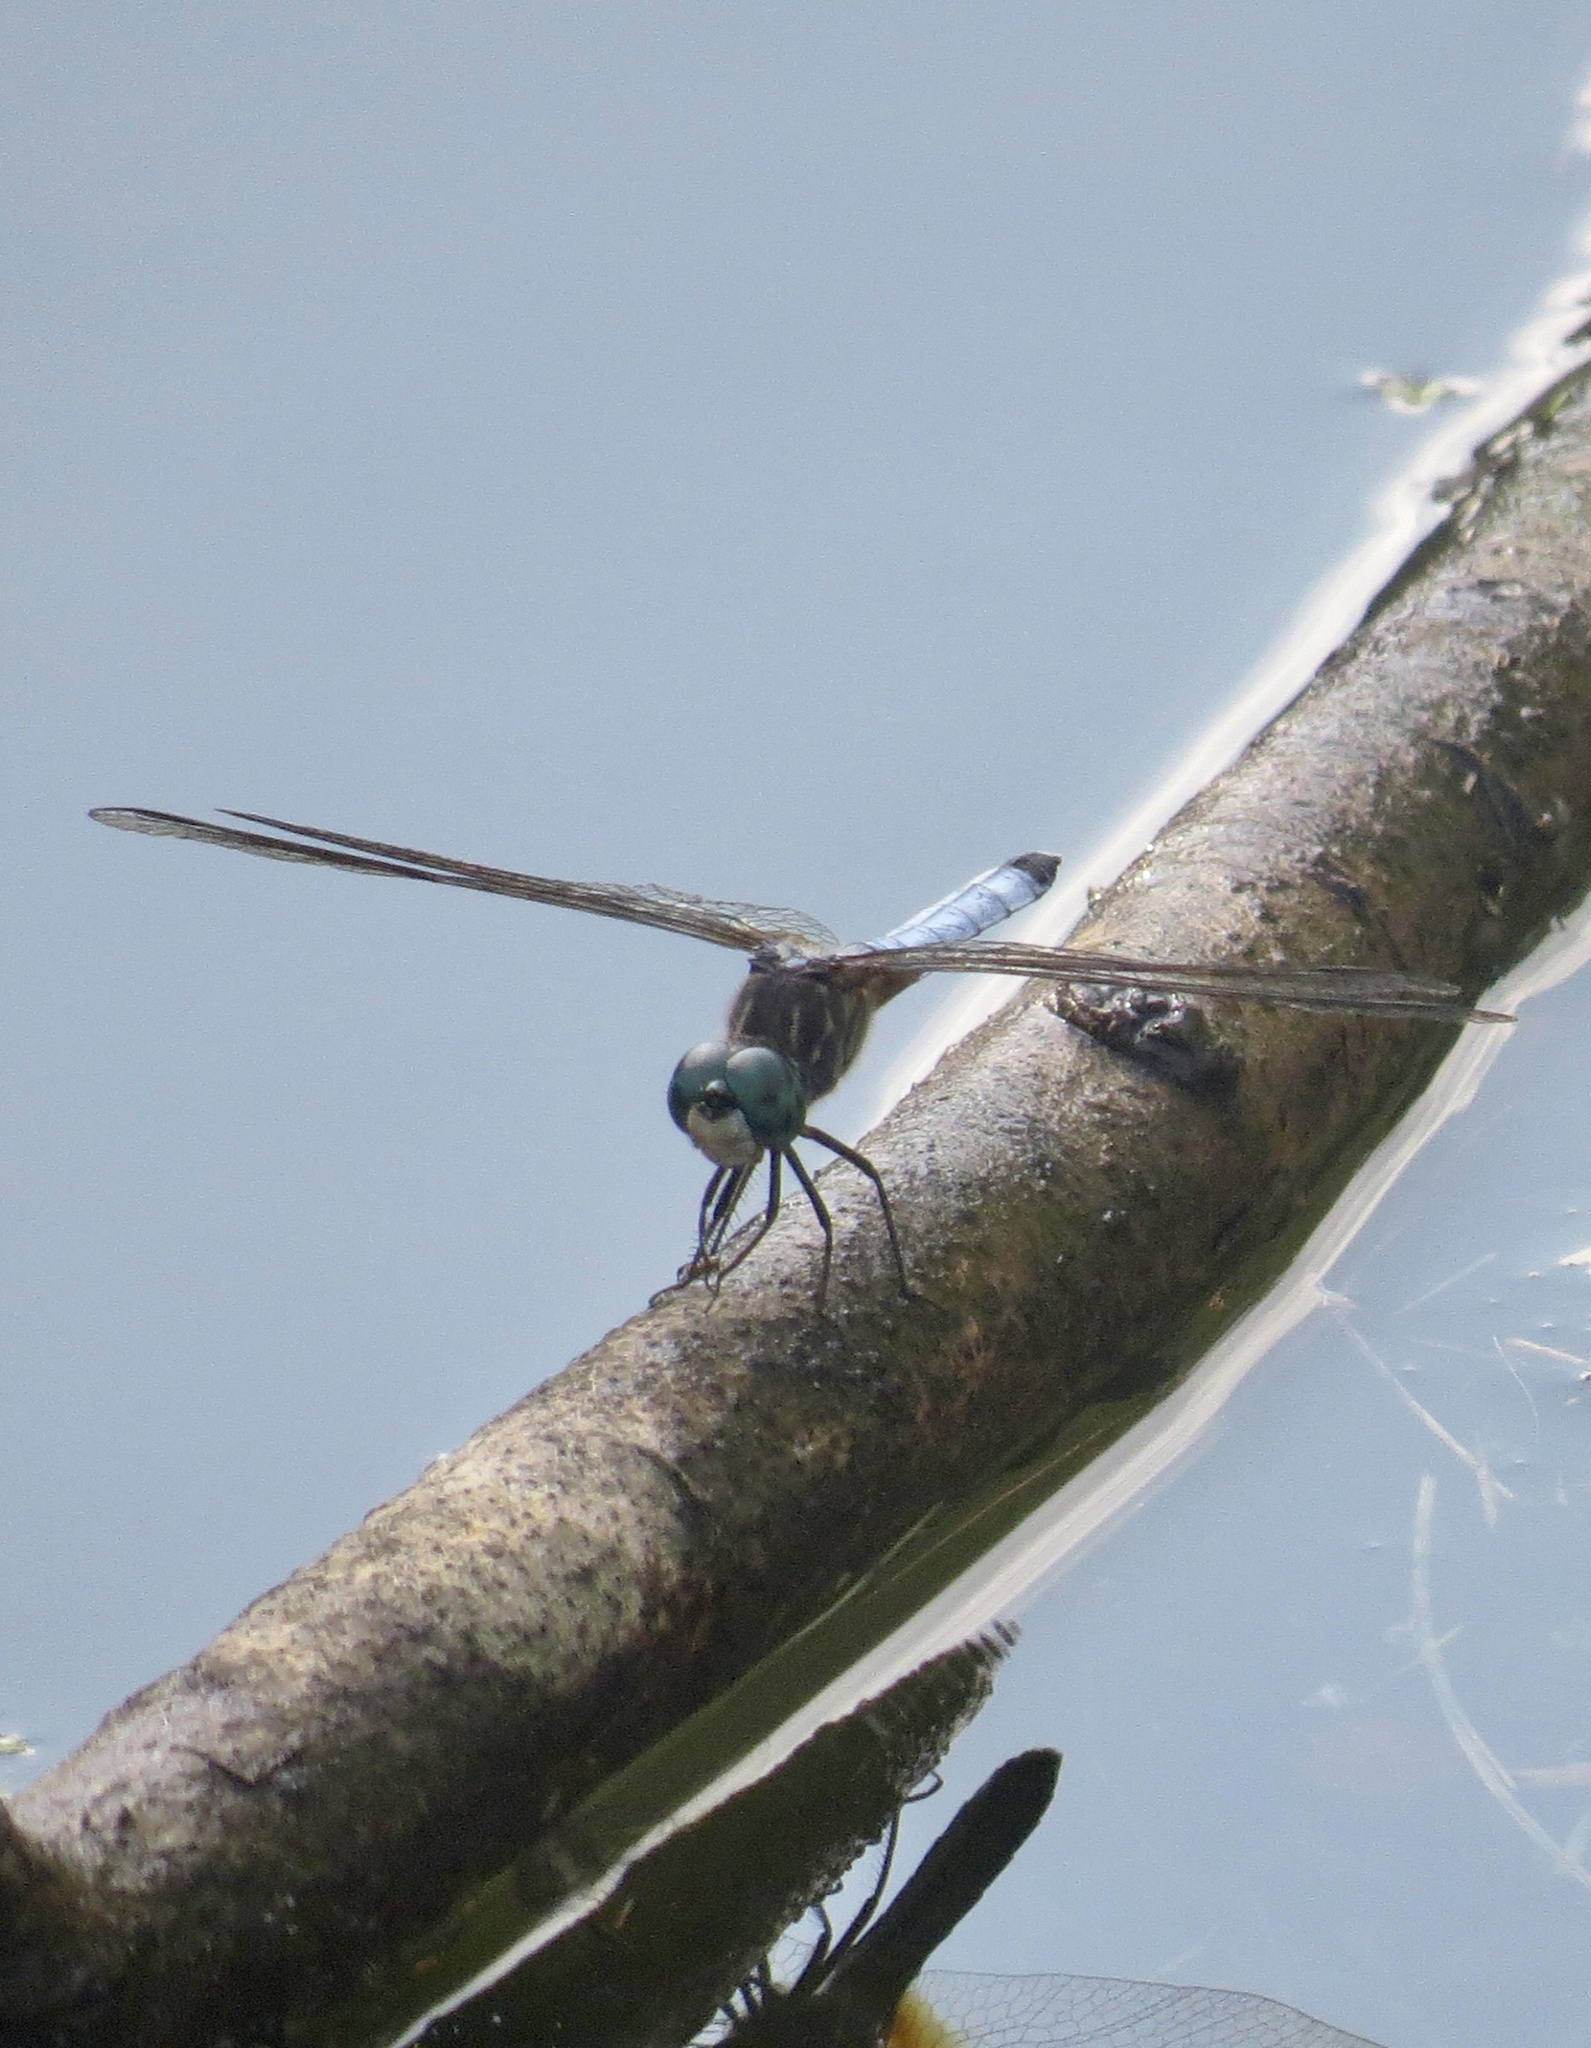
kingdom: Animalia
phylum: Arthropoda
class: Insecta
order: Odonata
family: Libellulidae
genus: Pachydiplax
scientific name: Pachydiplax longipennis
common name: Blue dasher
